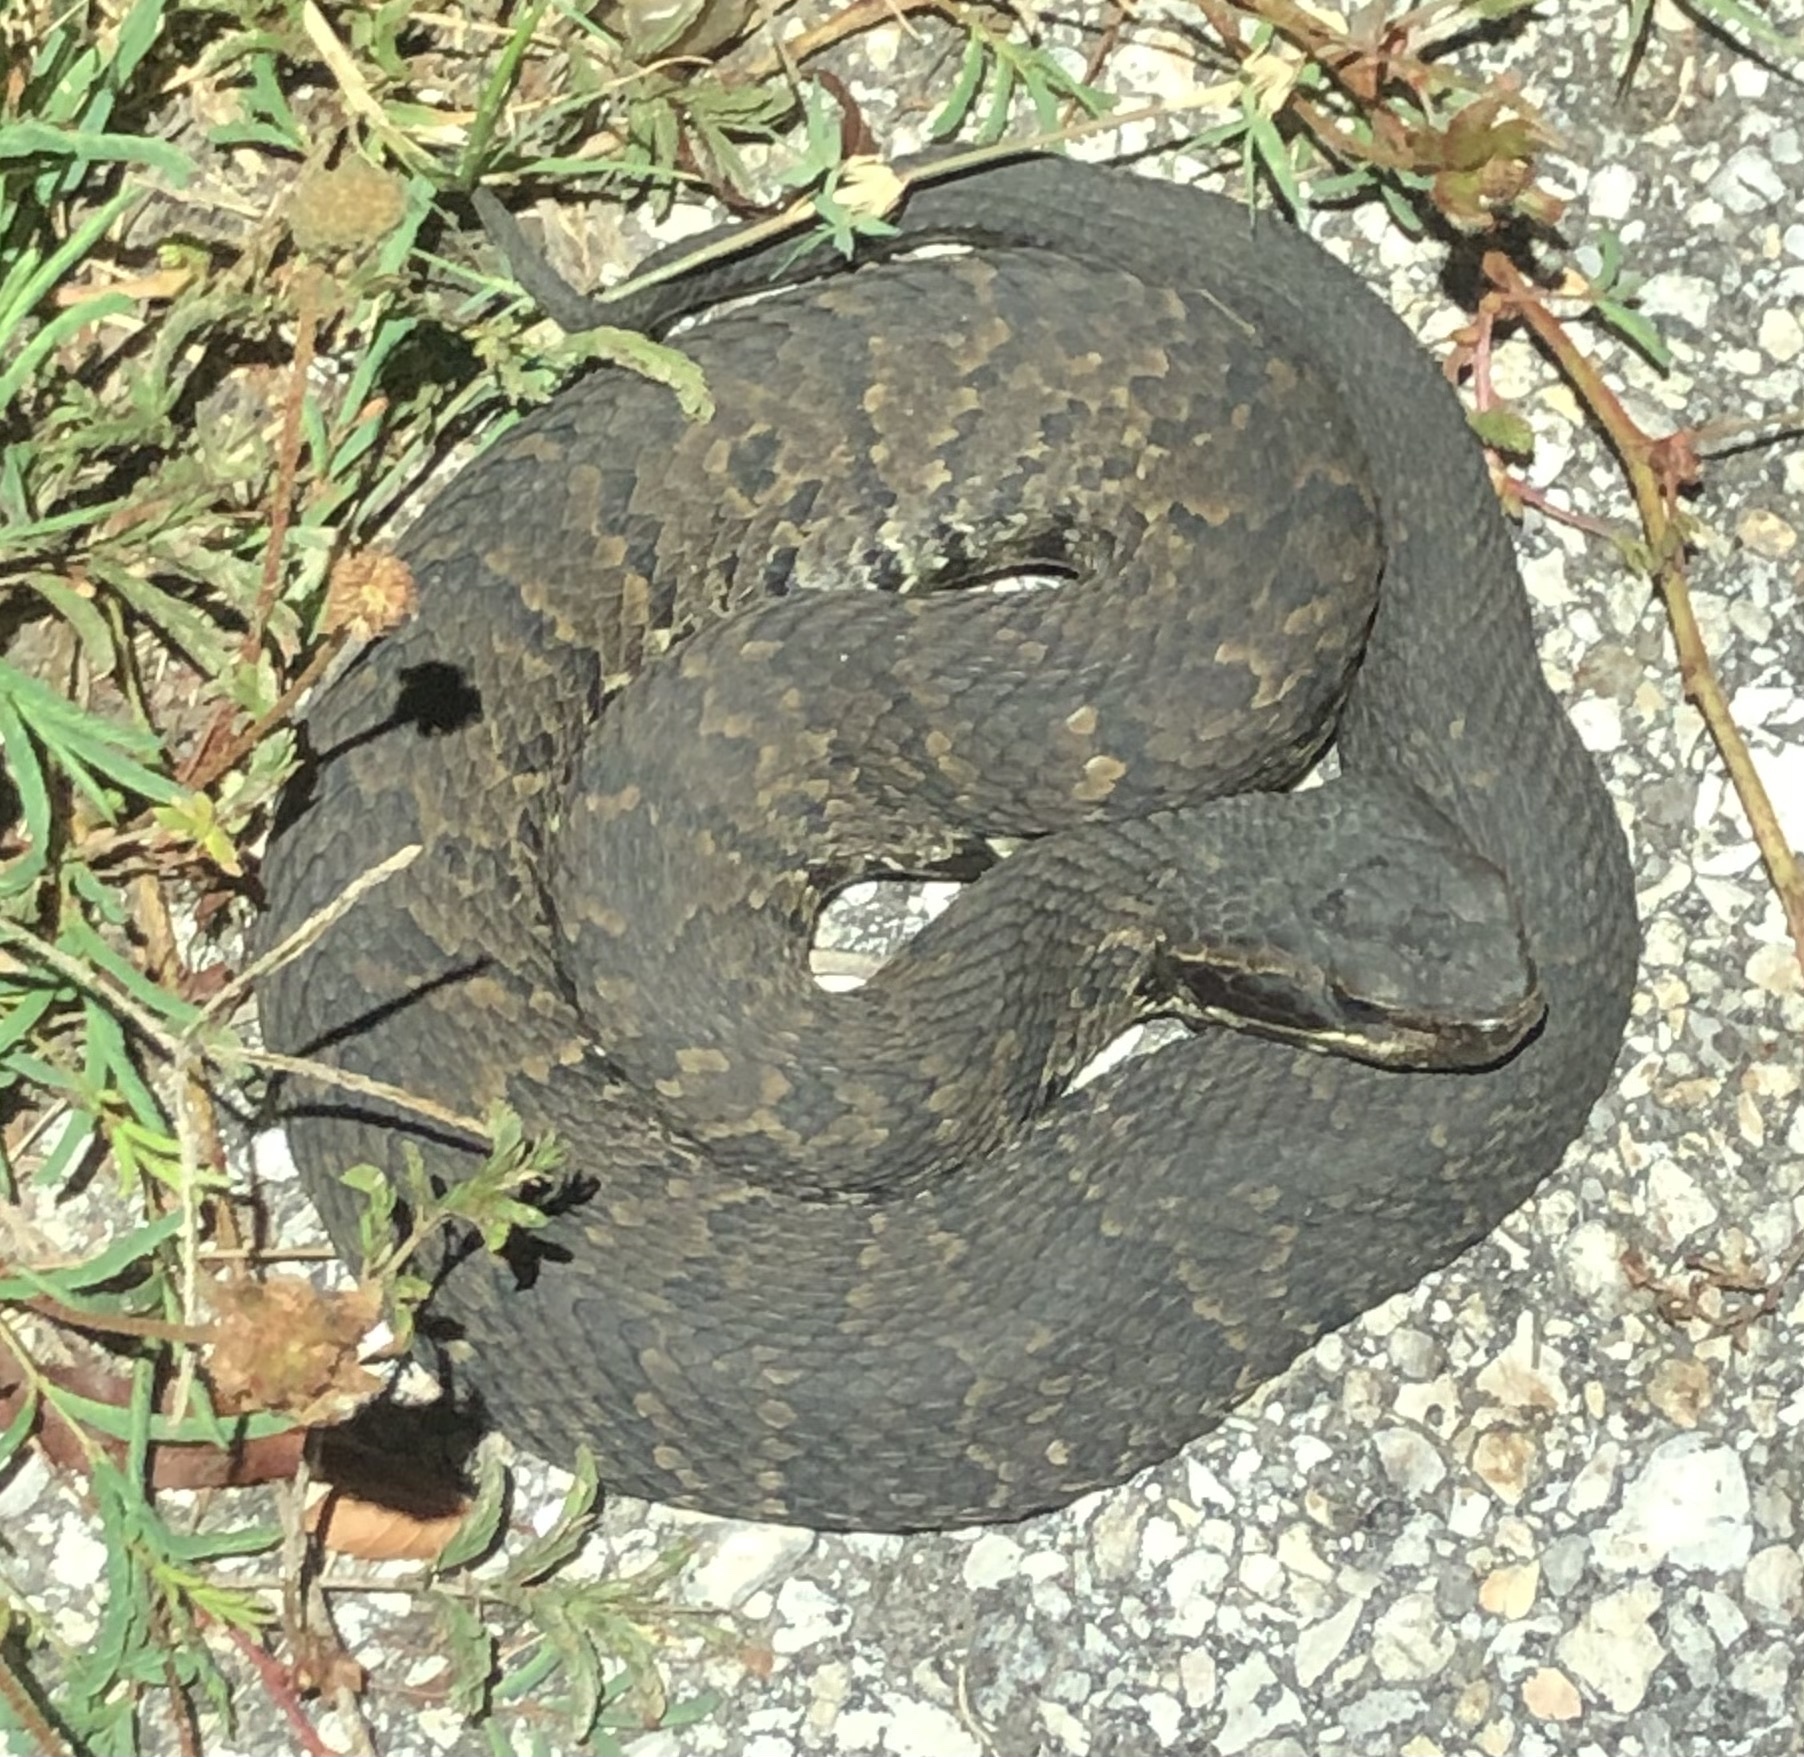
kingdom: Animalia
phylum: Chordata
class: Squamata
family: Viperidae
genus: Agkistrodon
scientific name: Agkistrodon piscivorus
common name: Cottonmouth
